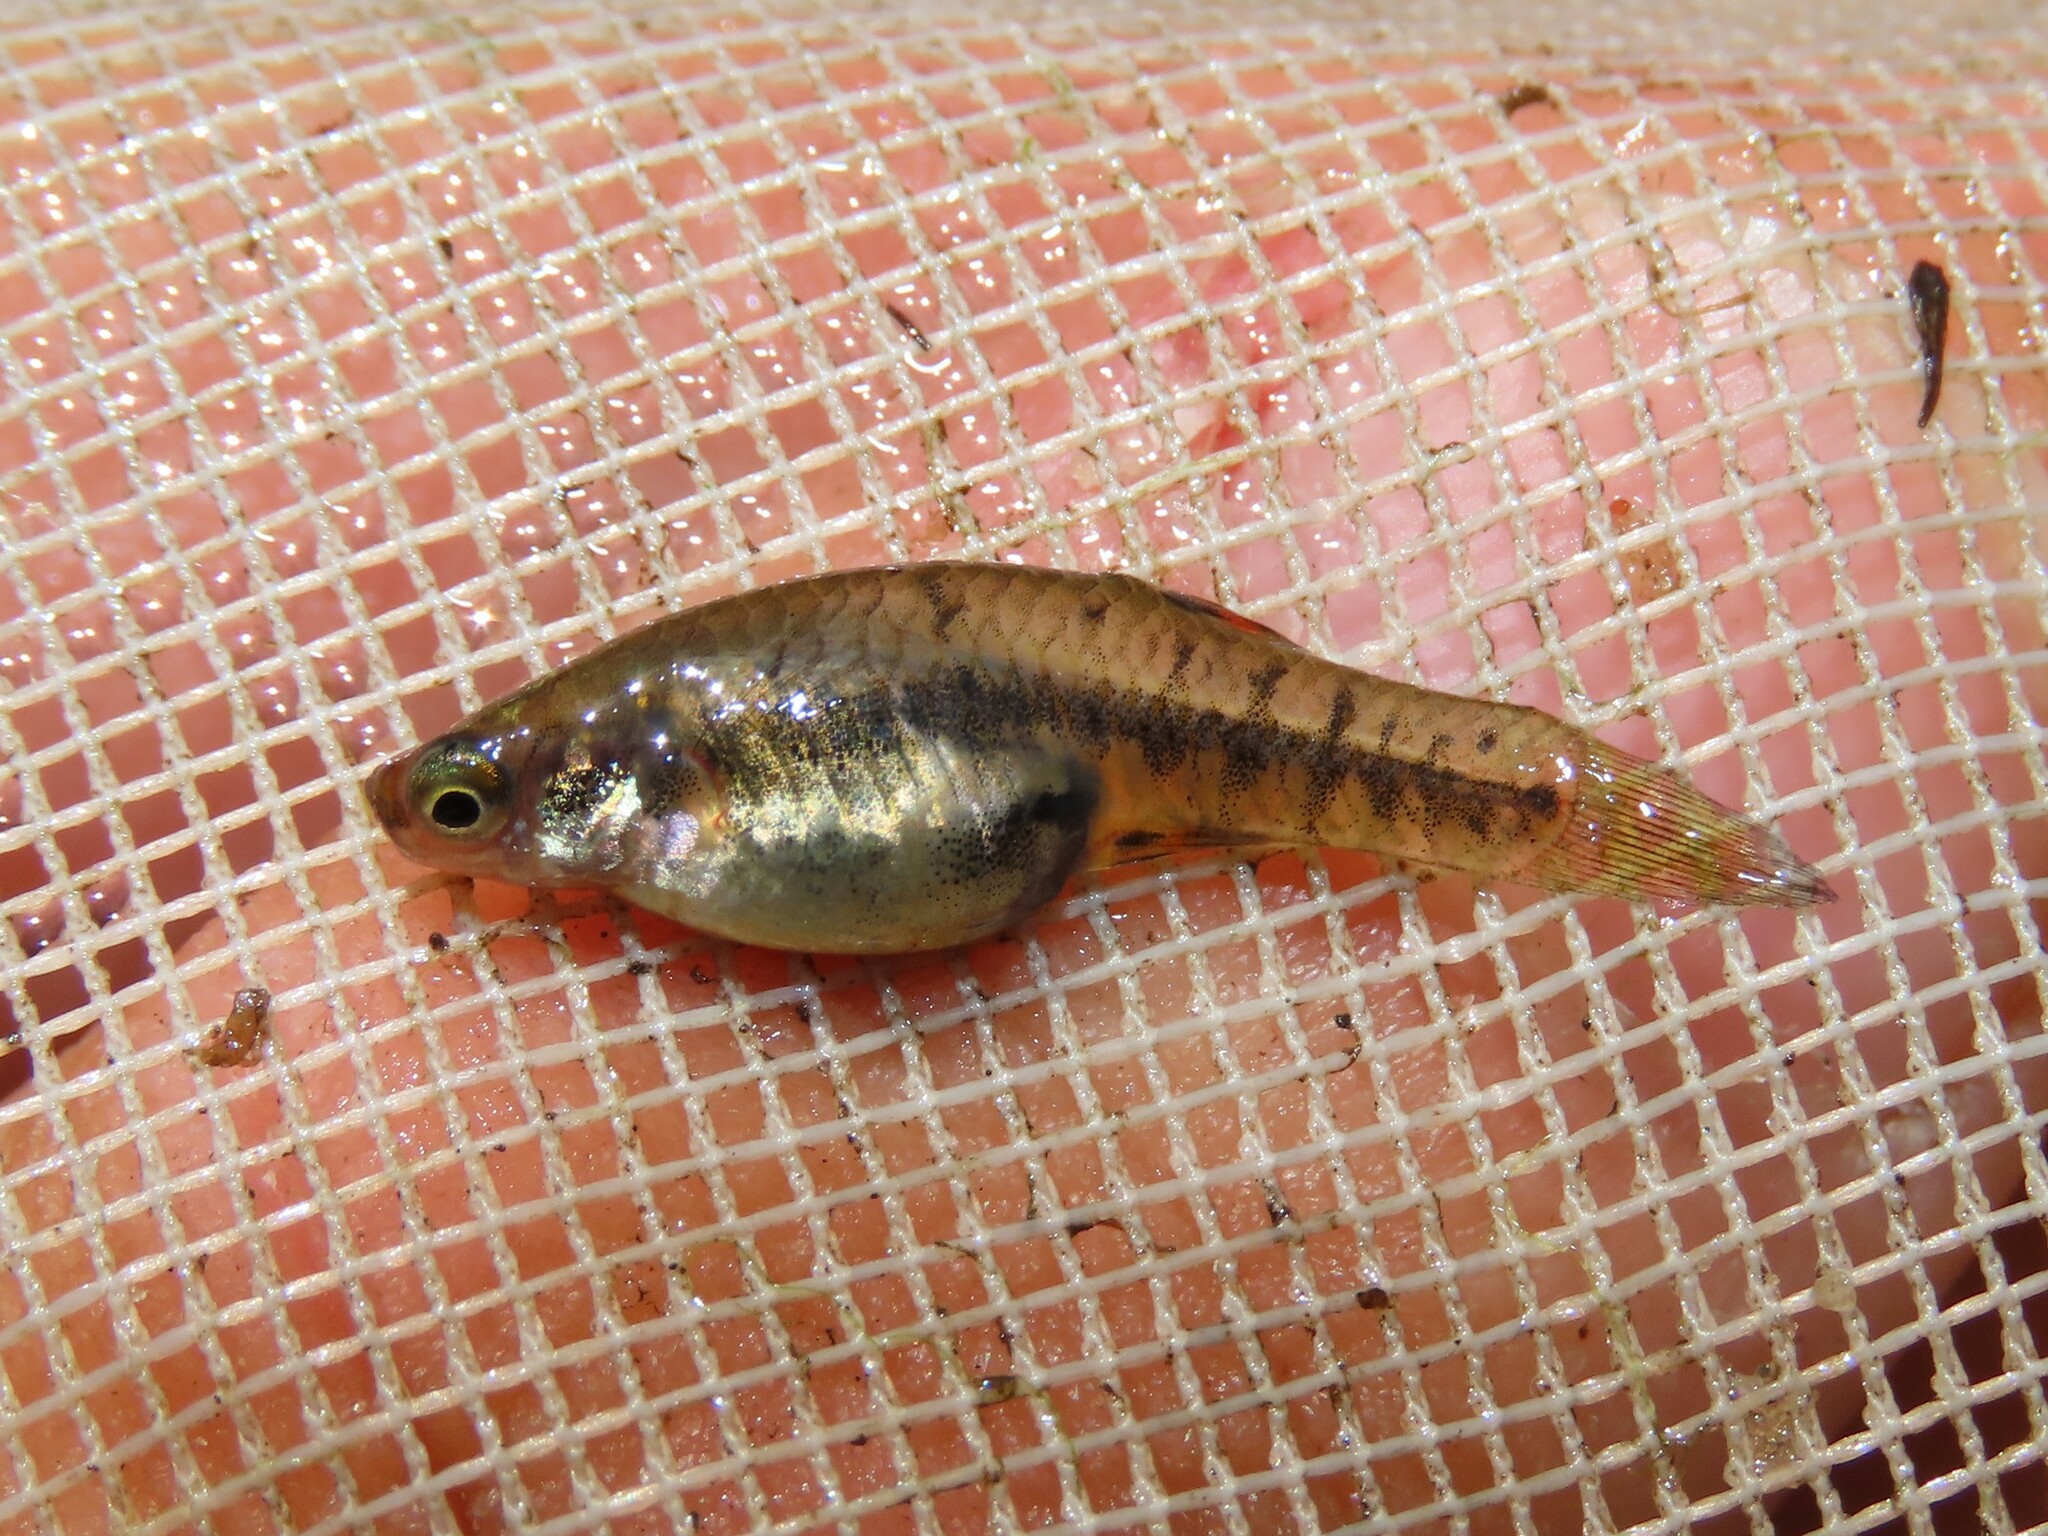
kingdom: Animalia
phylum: Chordata
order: Cyprinodontiformes
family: Poeciliidae
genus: Heterandria
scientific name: Heterandria formosa
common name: Least killifish
